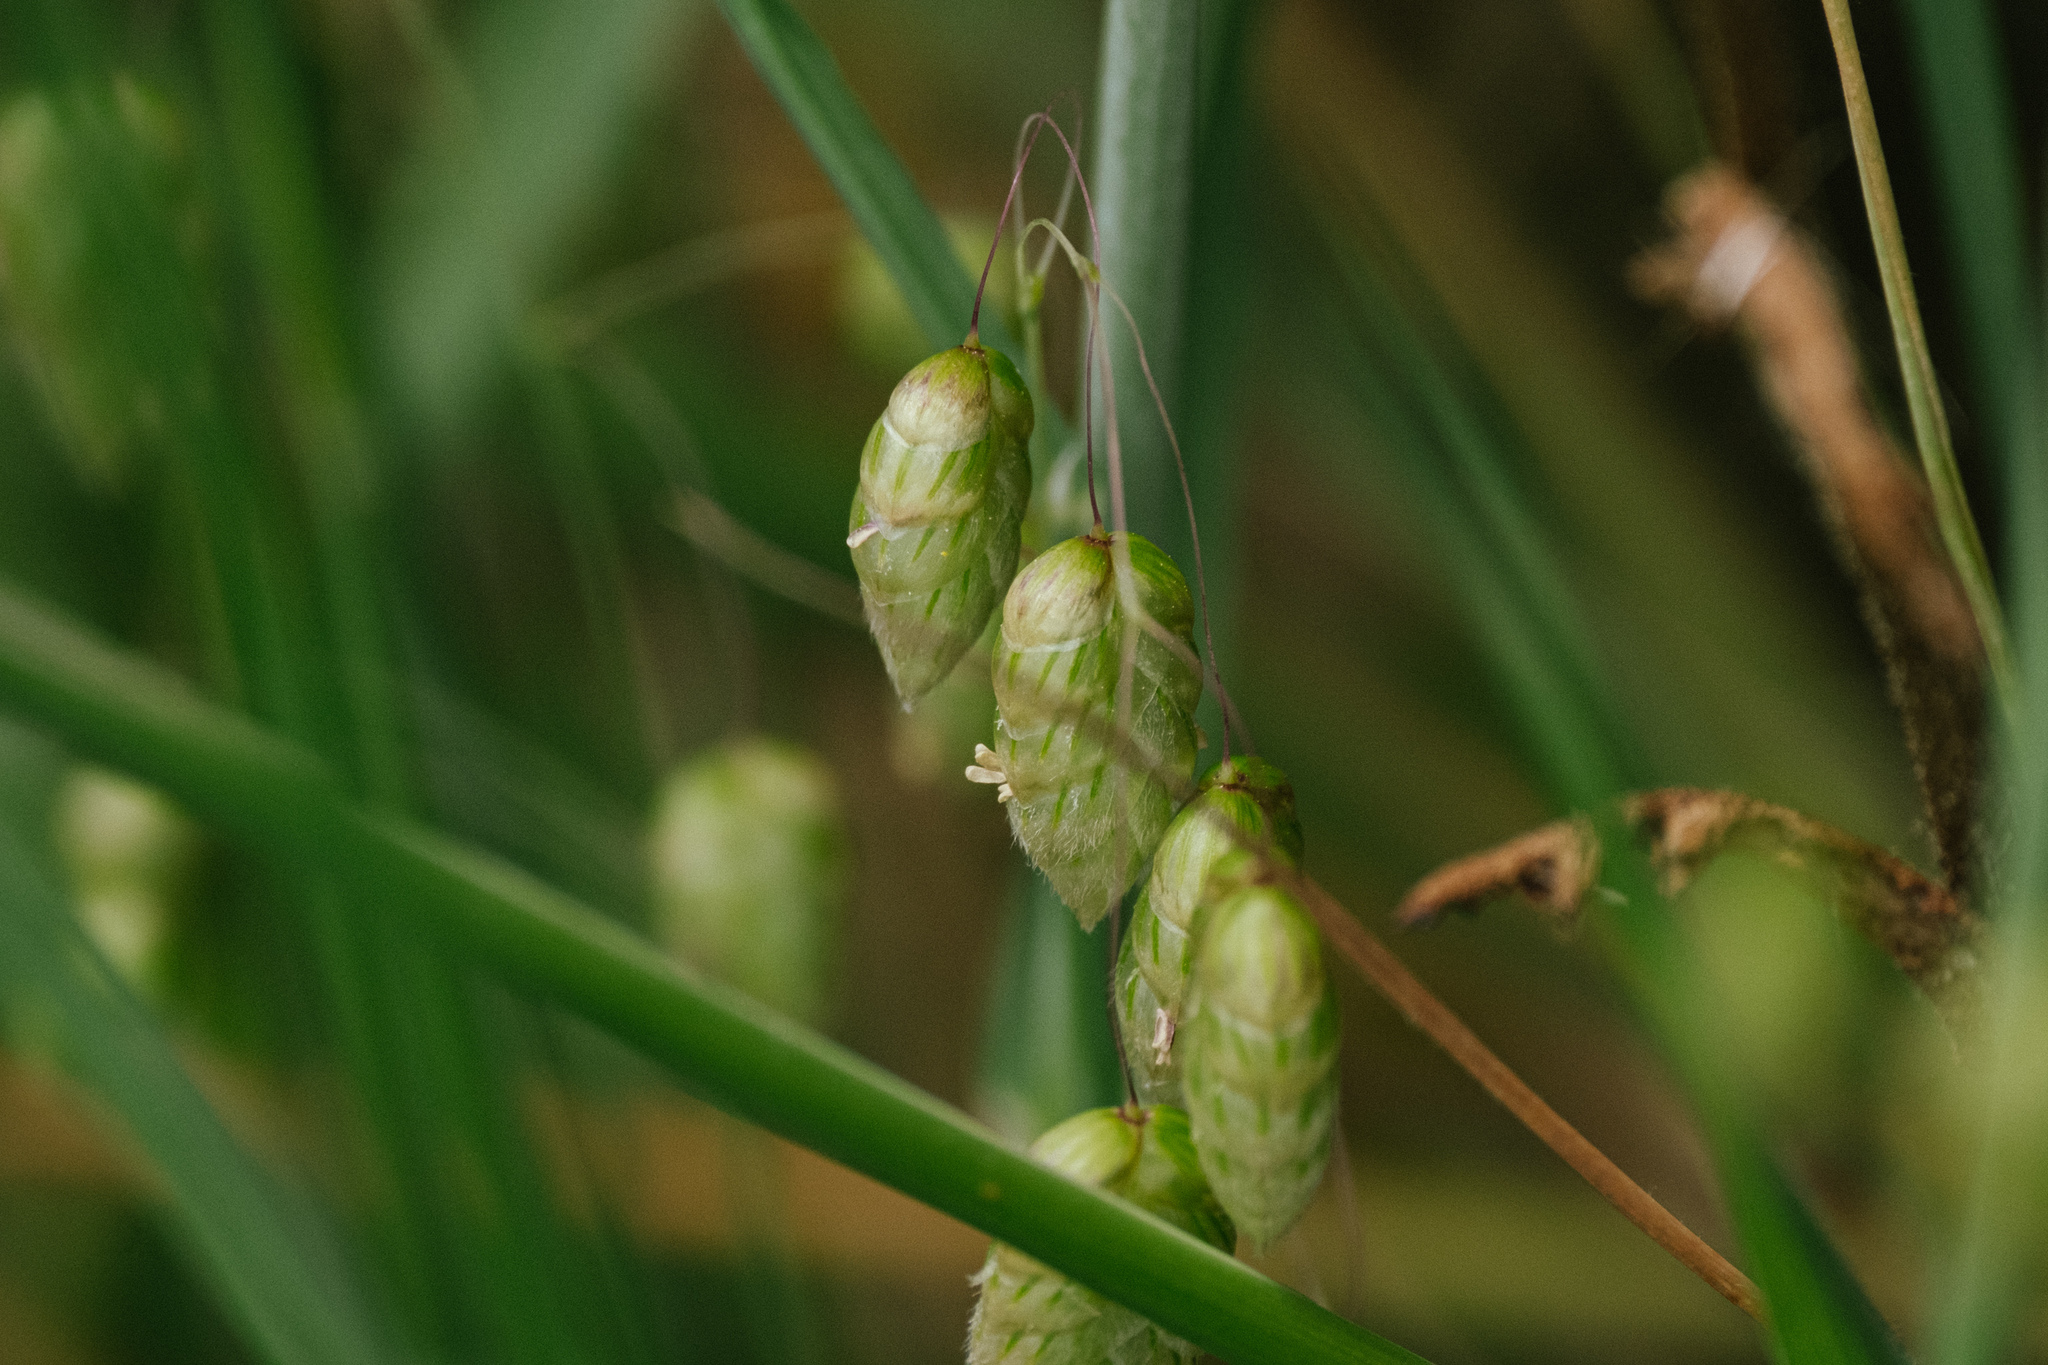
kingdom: Plantae
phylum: Tracheophyta
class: Liliopsida
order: Poales
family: Poaceae
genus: Briza
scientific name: Briza maxima
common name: Big quakinggrass
